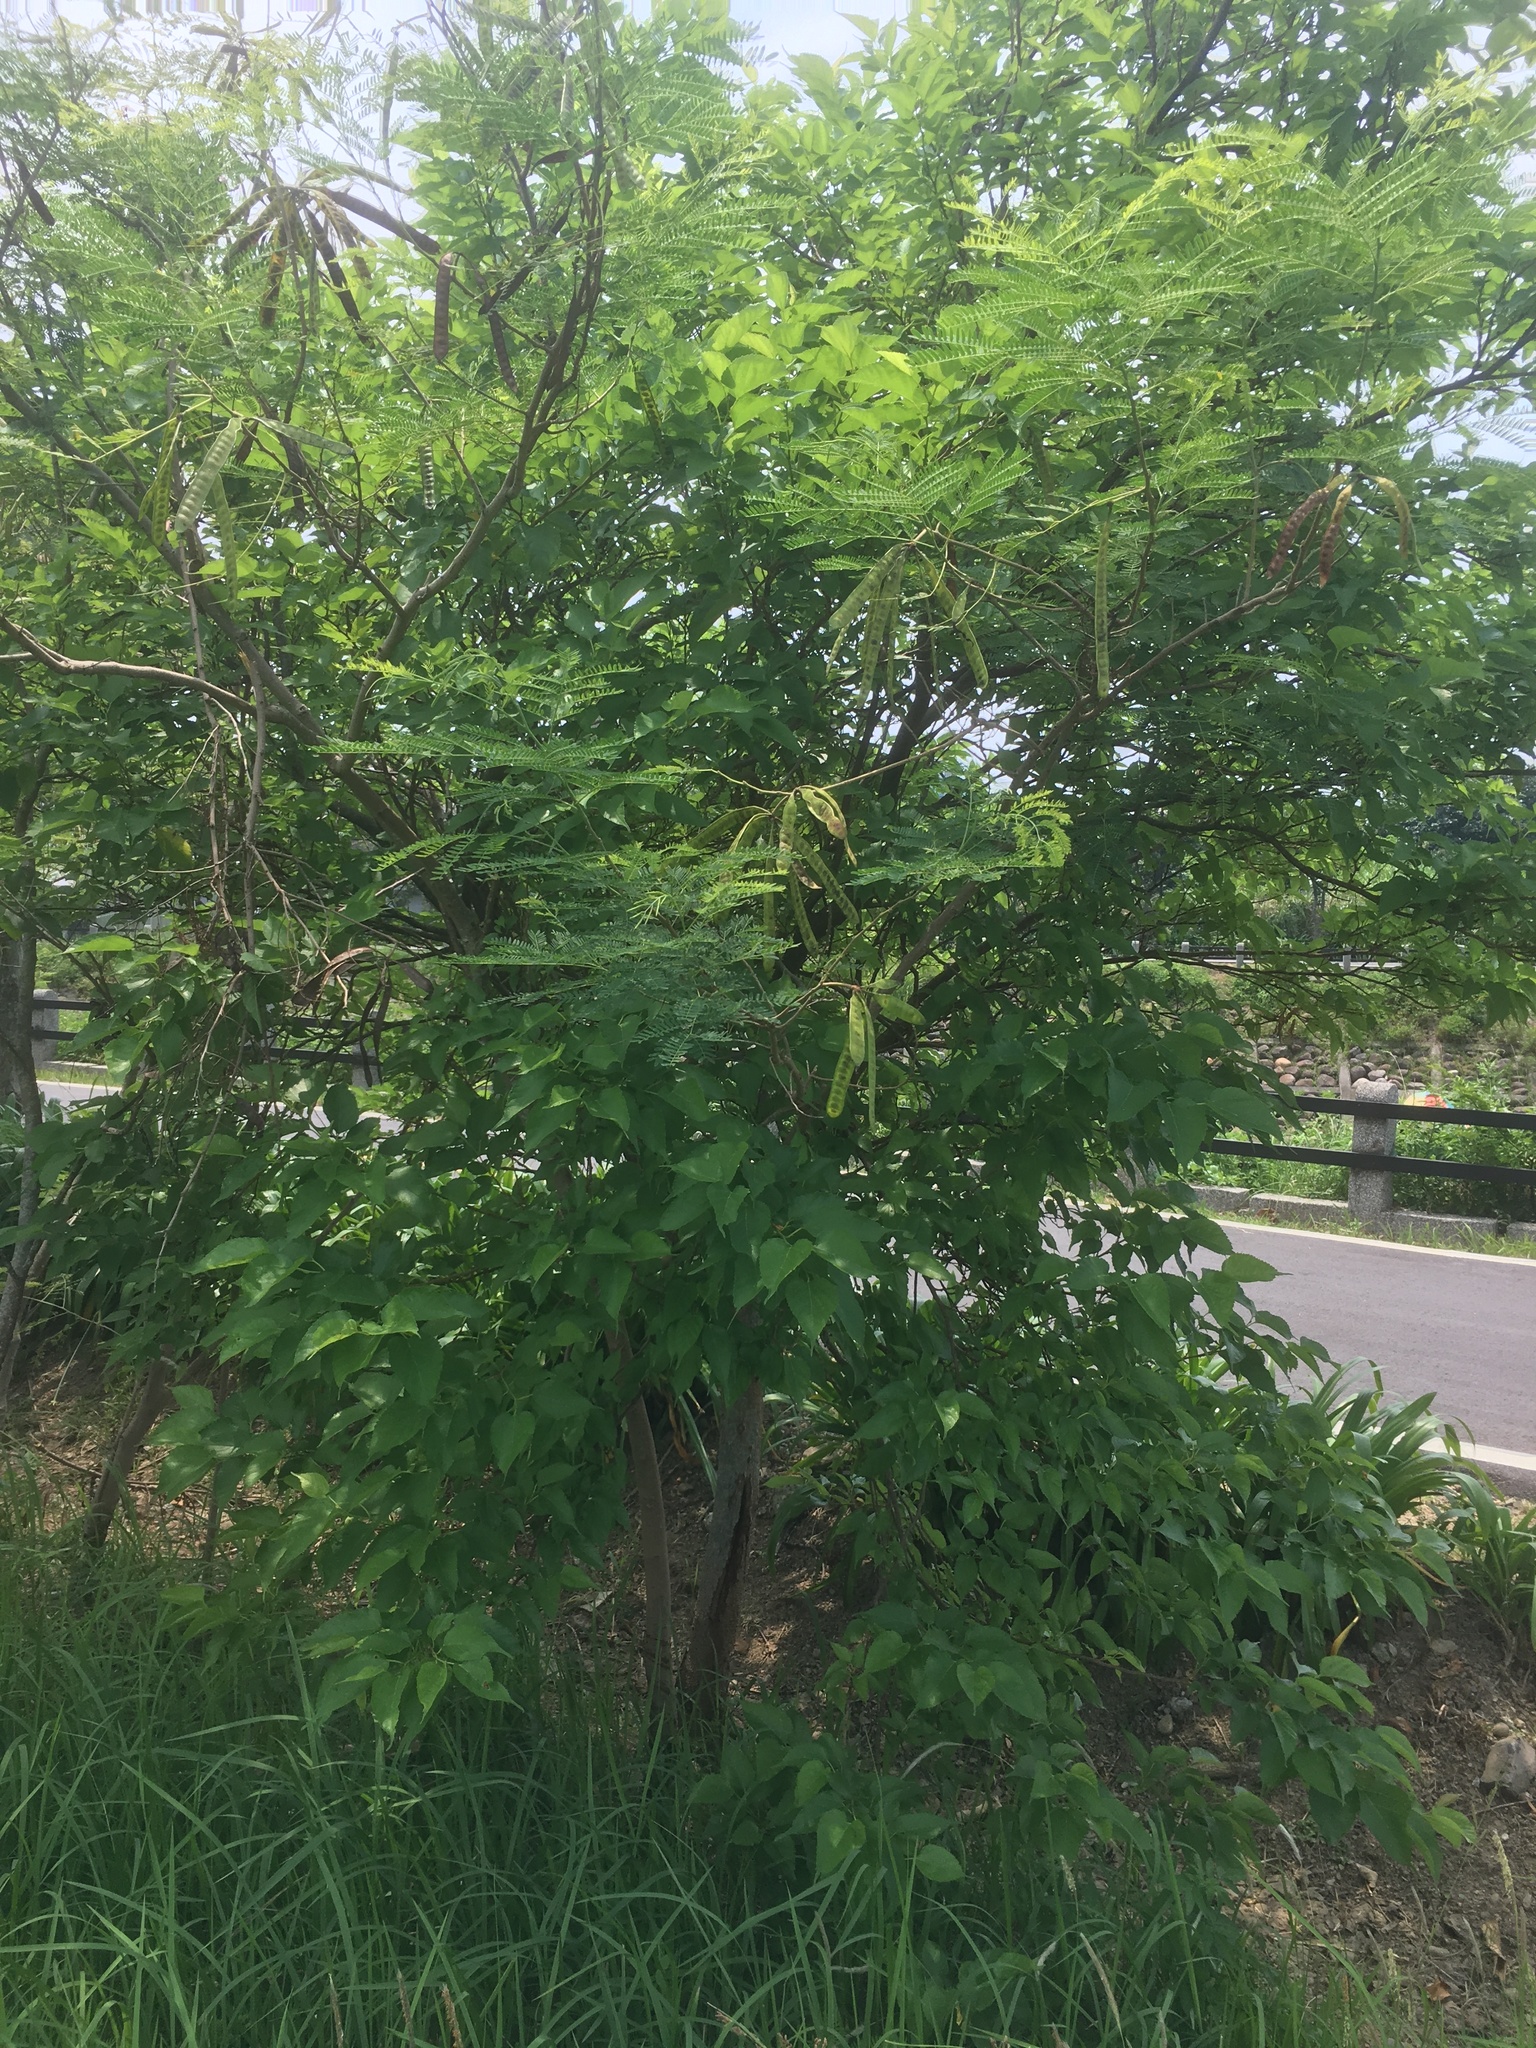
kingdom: Plantae
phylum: Tracheophyta
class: Magnoliopsida
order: Rosales
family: Moraceae
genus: Morus
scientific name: Morus indica
